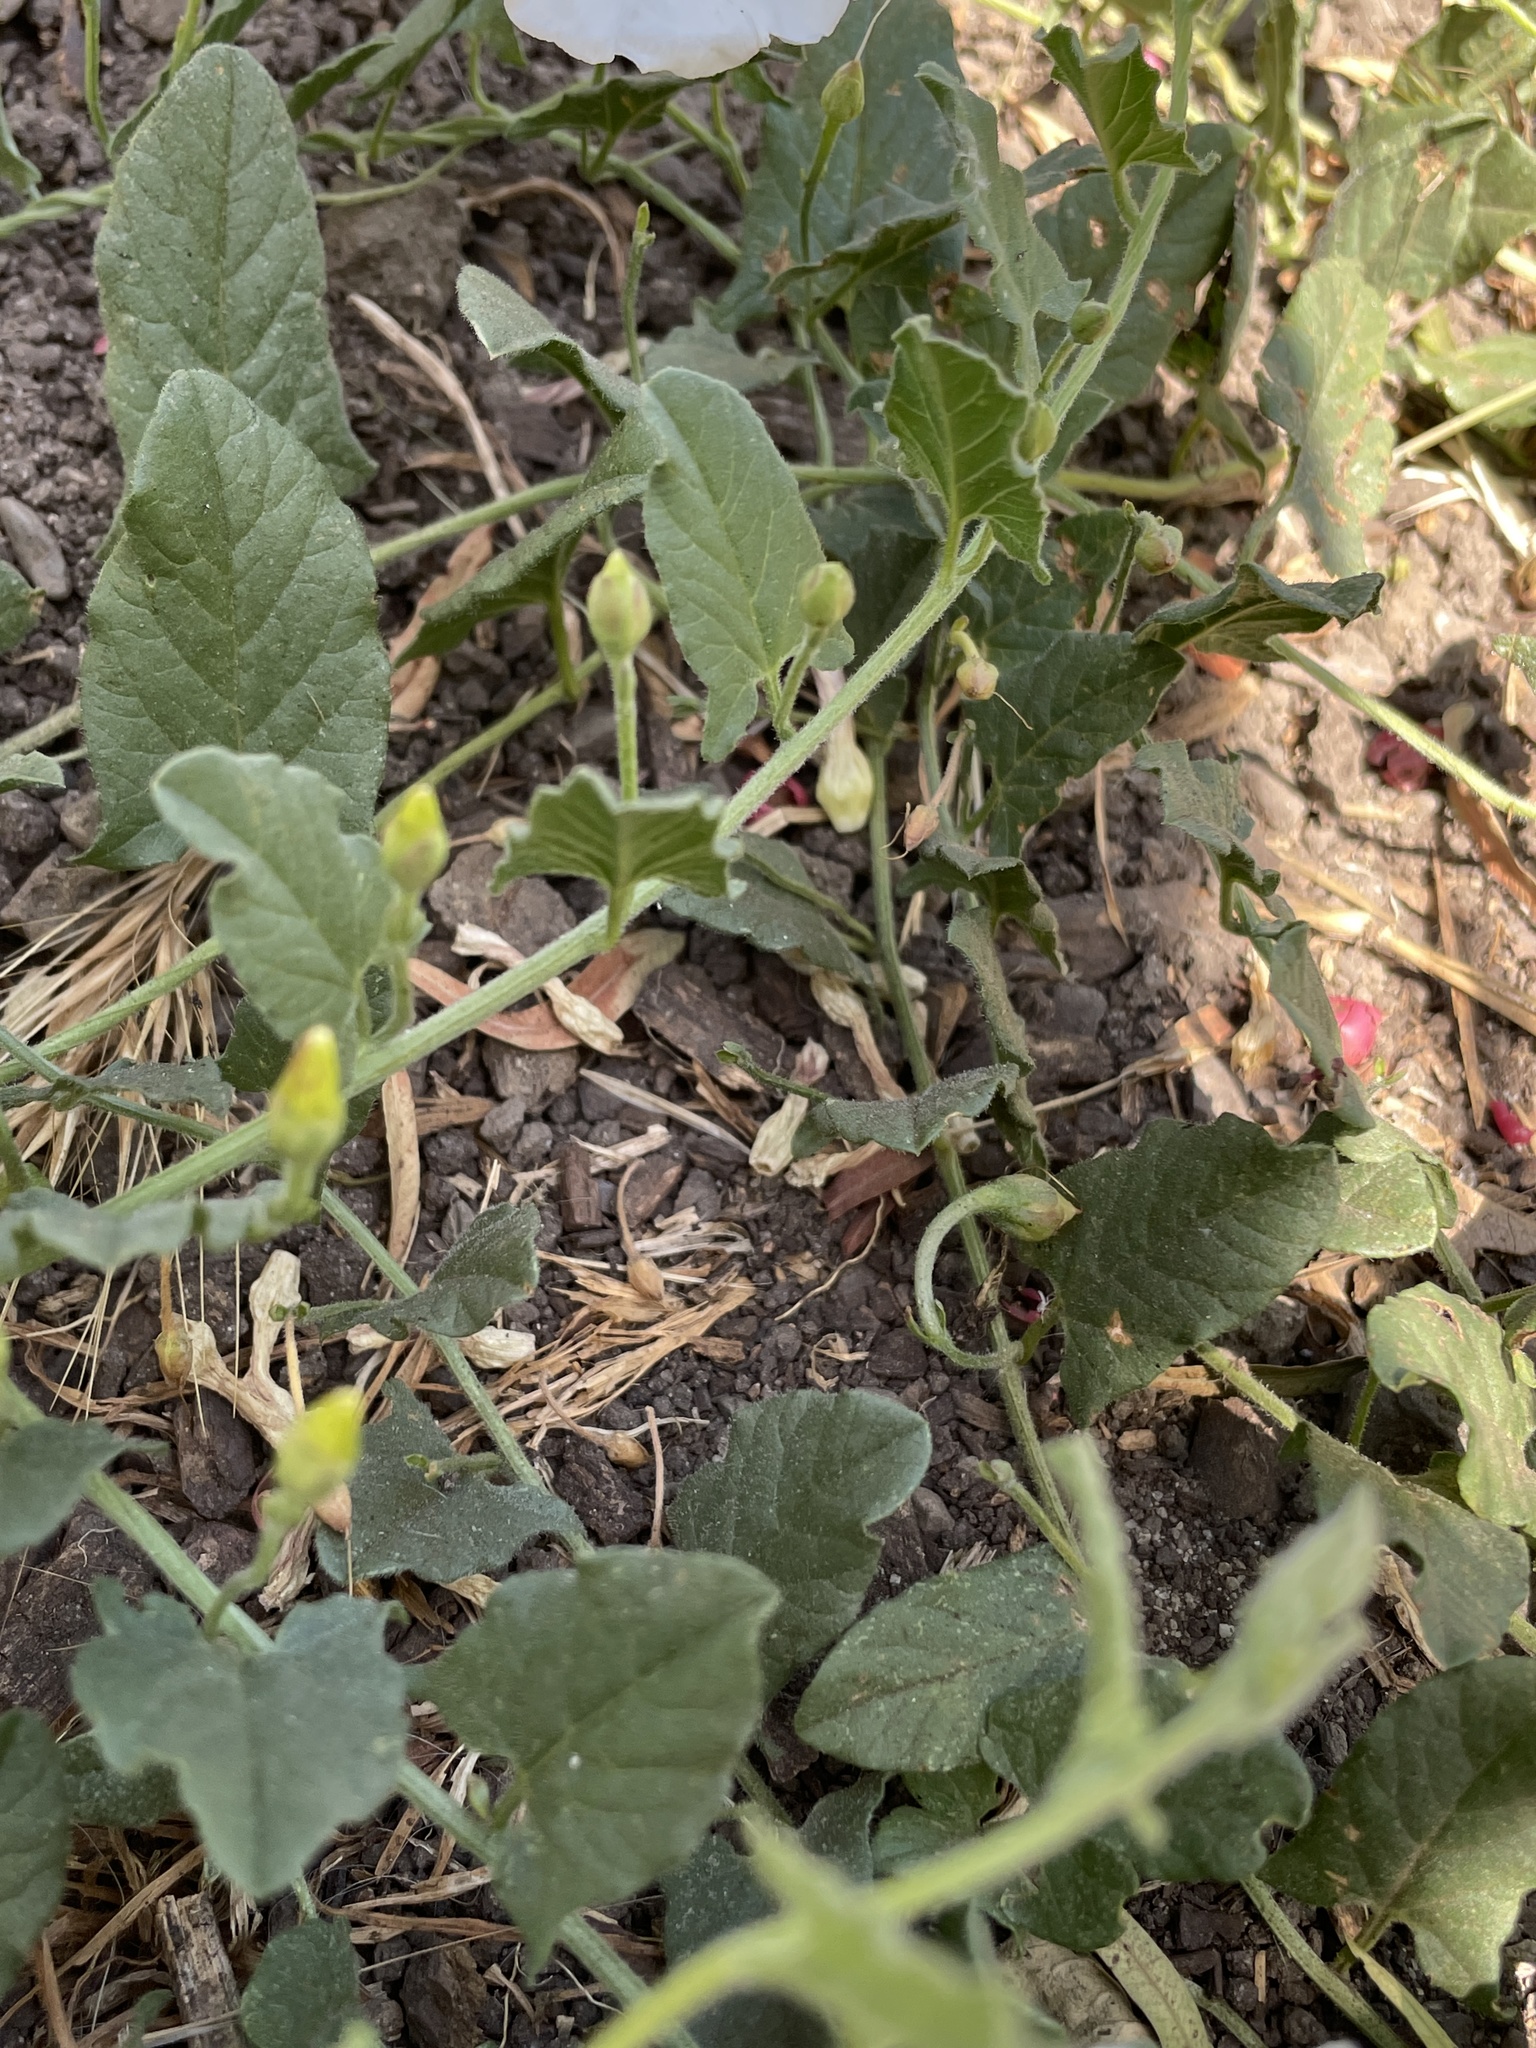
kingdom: Plantae
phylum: Tracheophyta
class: Magnoliopsida
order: Solanales
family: Convolvulaceae
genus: Convolvulus
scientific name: Convolvulus arvensis
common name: Field bindweed
